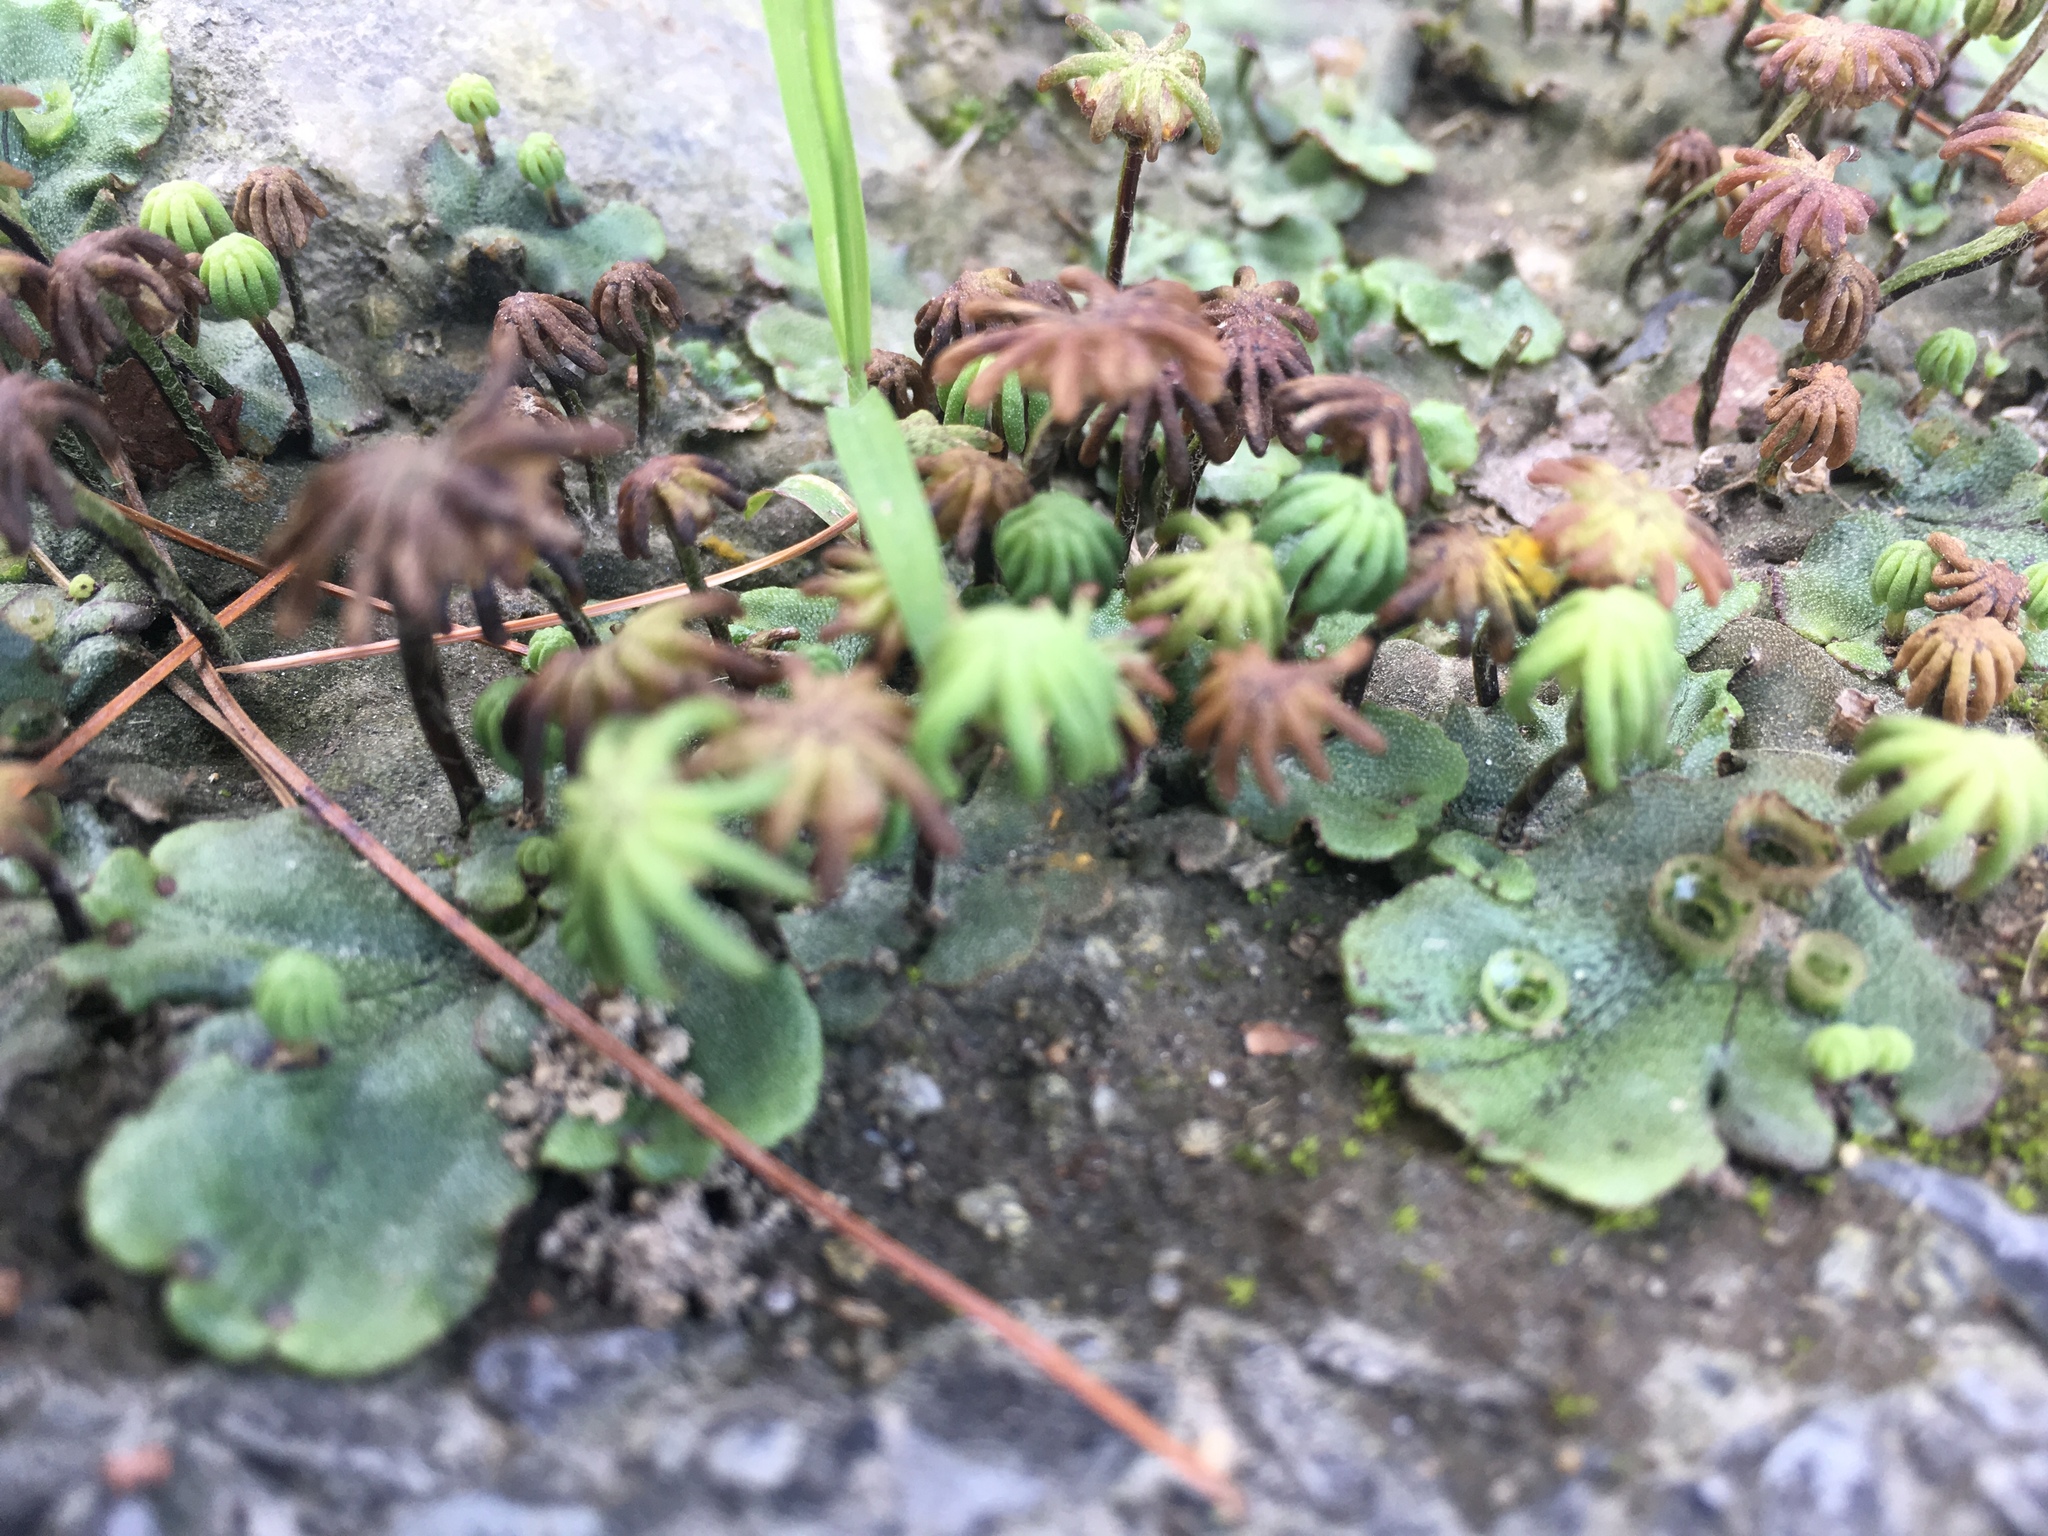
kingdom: Plantae
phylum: Marchantiophyta
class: Marchantiopsida
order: Marchantiales
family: Marchantiaceae
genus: Marchantia
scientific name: Marchantia polymorpha
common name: Common liverwort
